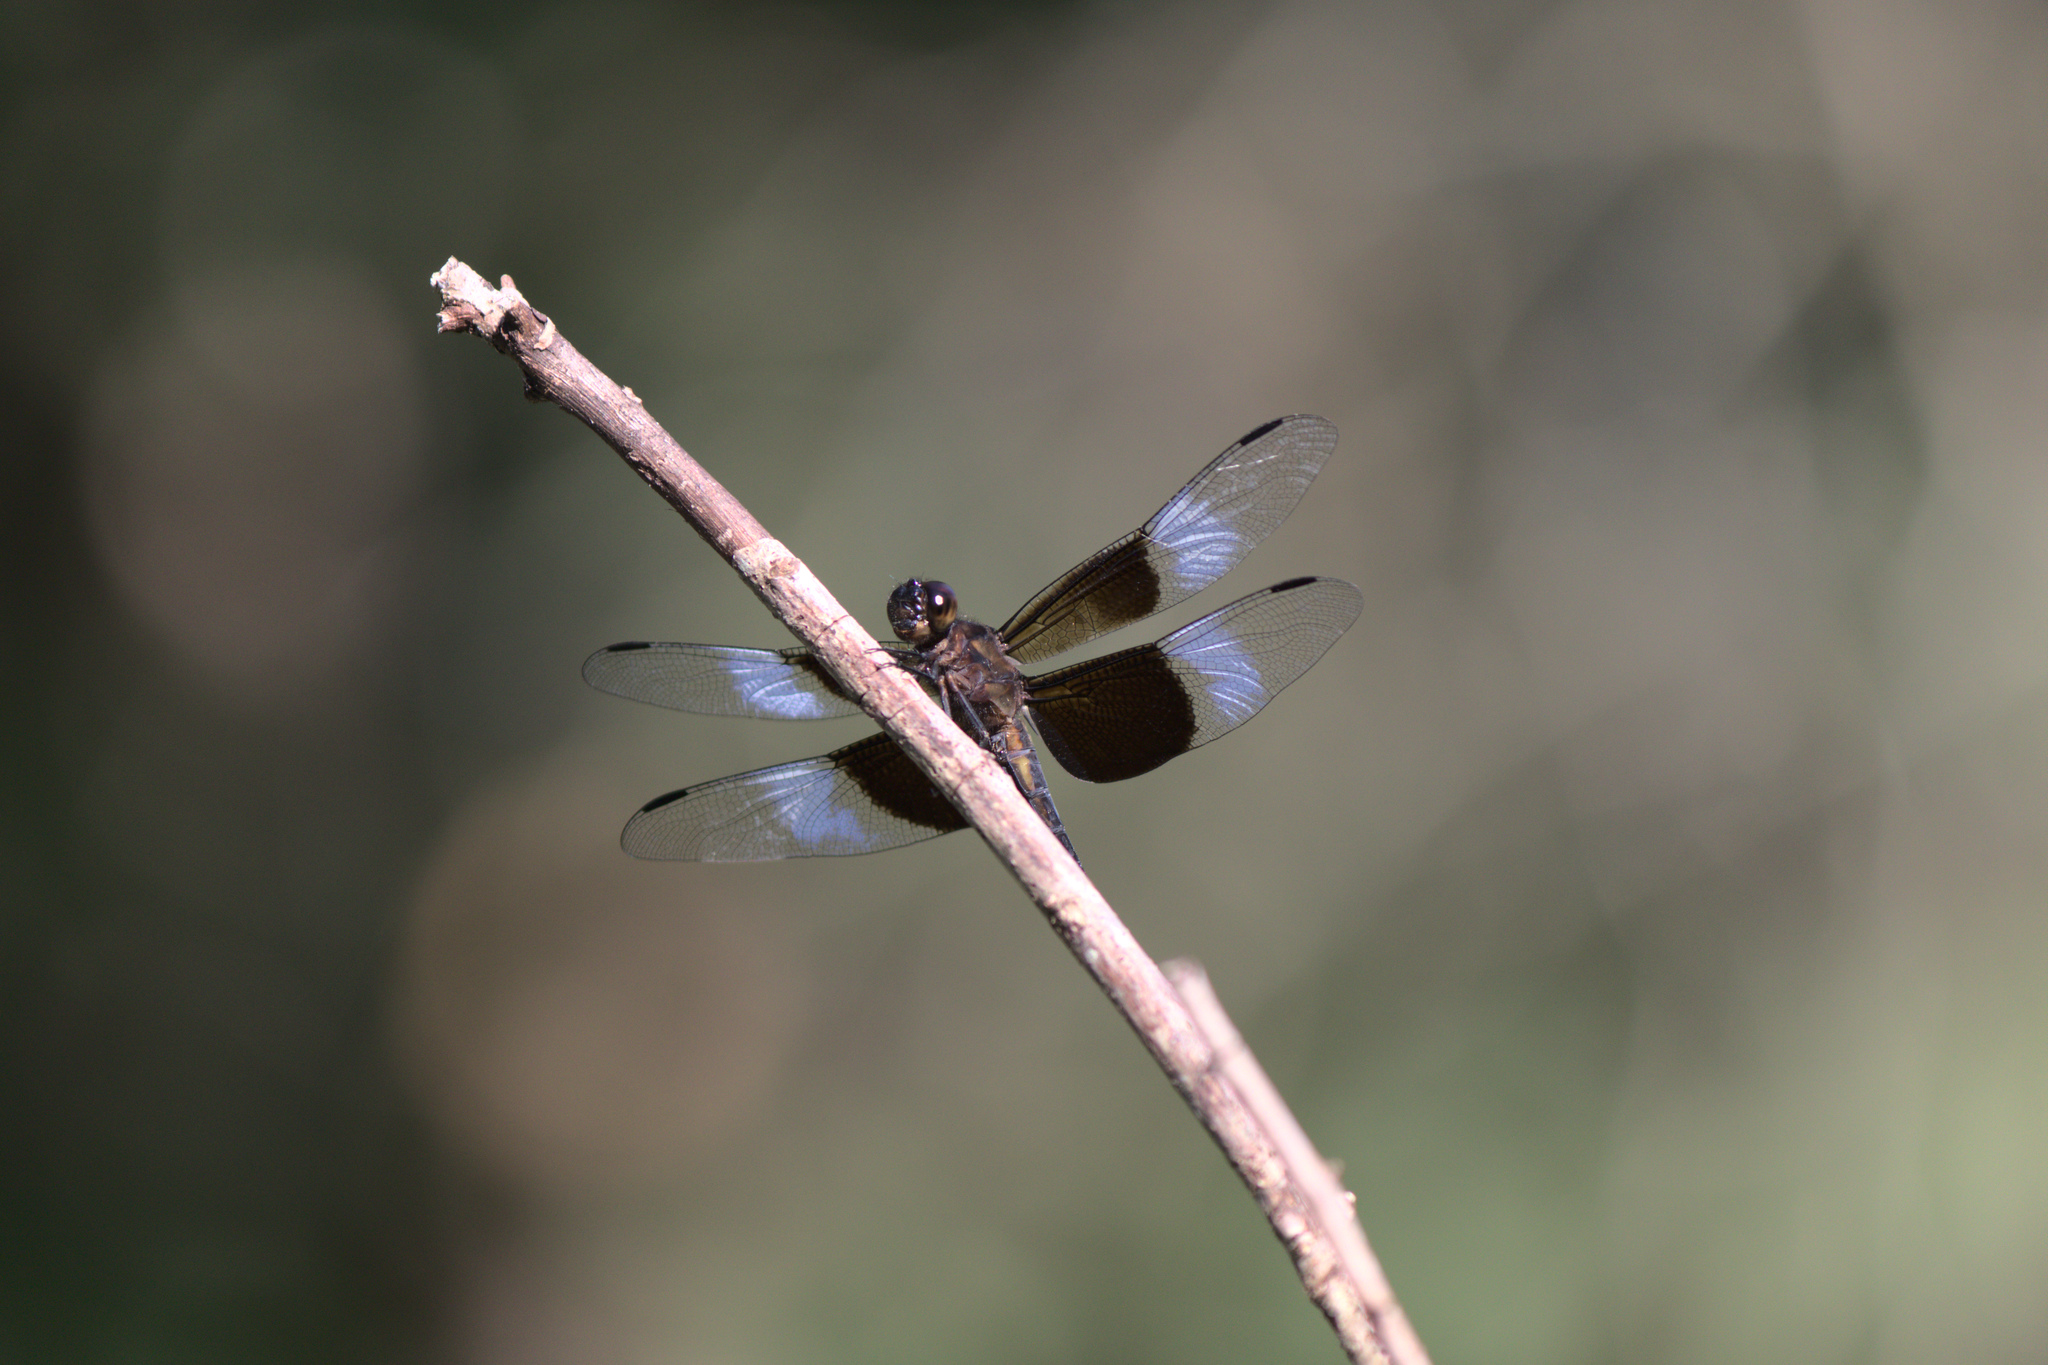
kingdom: Animalia
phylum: Arthropoda
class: Insecta
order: Odonata
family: Libellulidae
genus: Libellula
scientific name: Libellula luctuosa
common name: Widow skimmer
